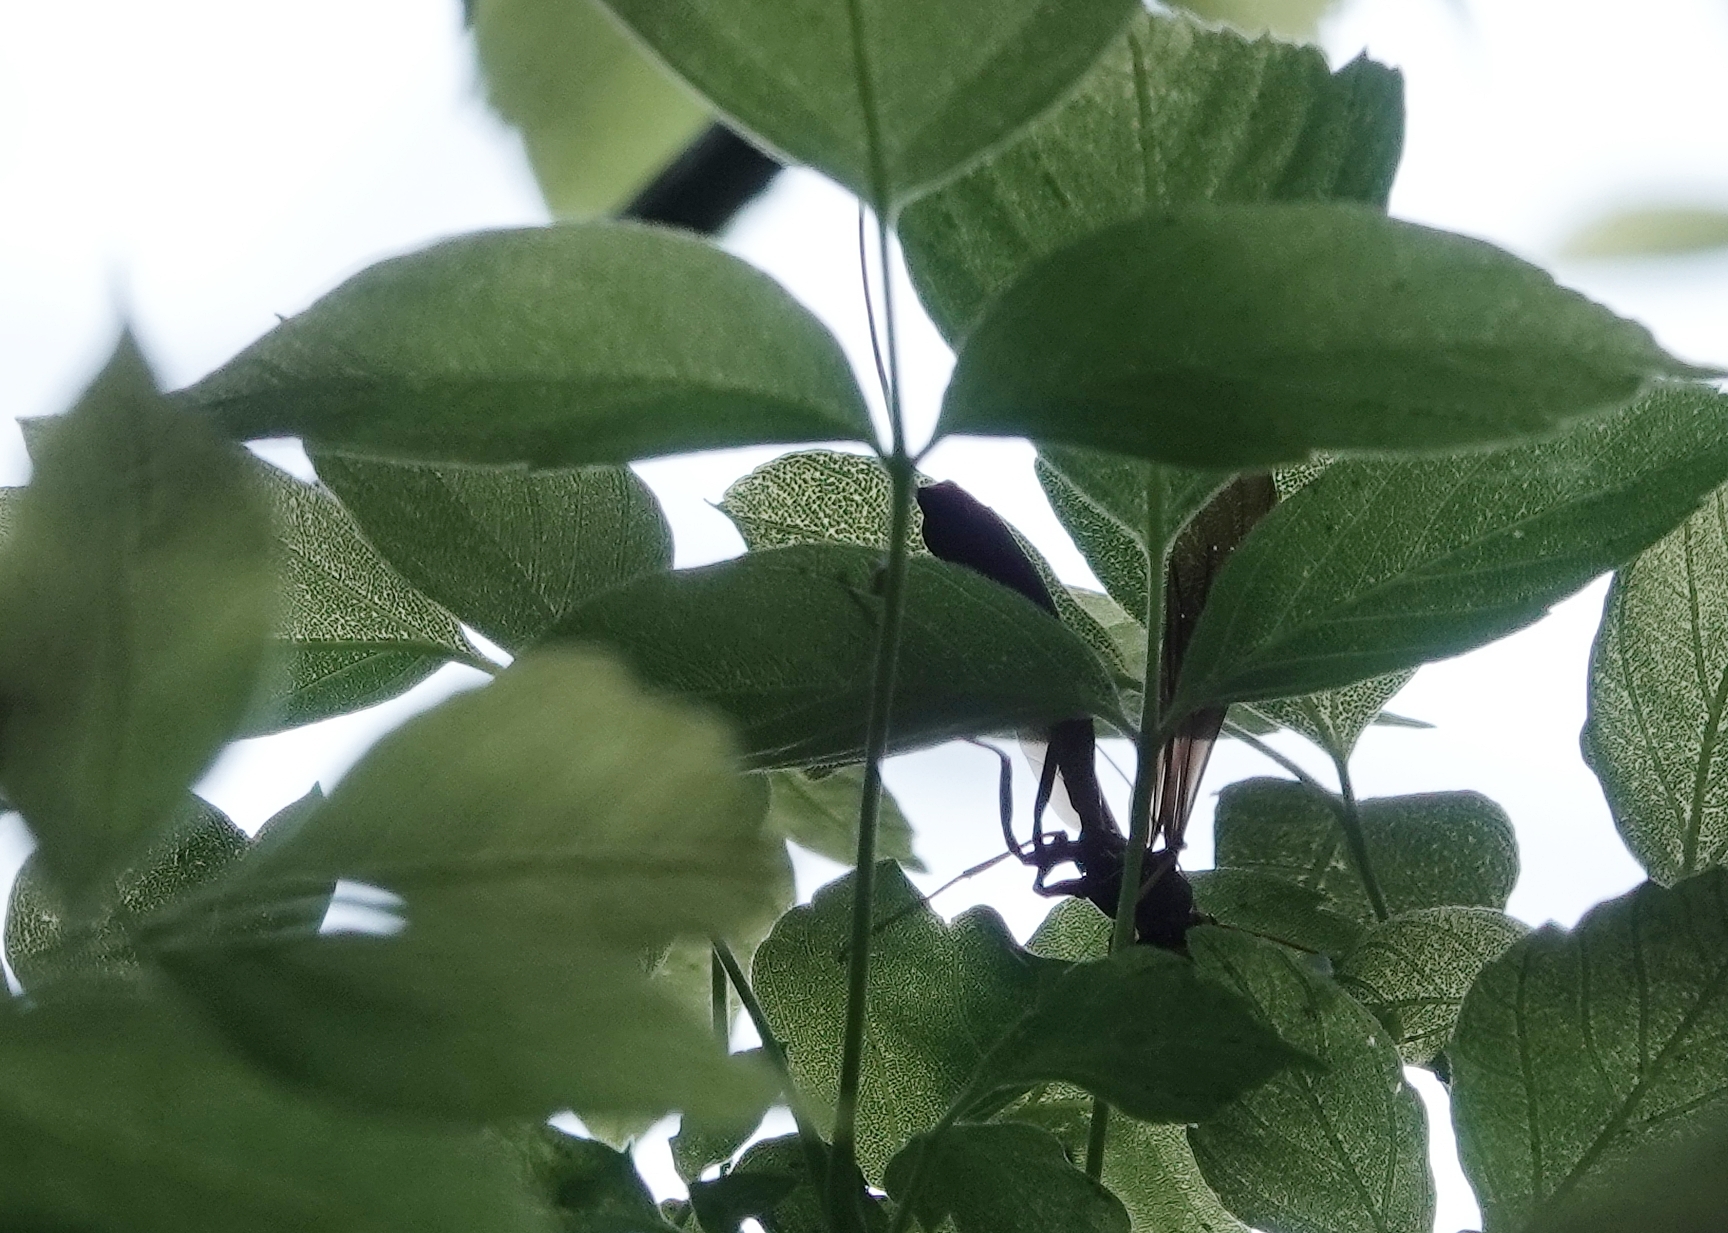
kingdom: Animalia
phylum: Arthropoda
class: Insecta
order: Hymenoptera
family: Ichneumonidae
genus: Megarhyssa
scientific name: Megarhyssa atrata
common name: Black giant ichneumonid wasp
